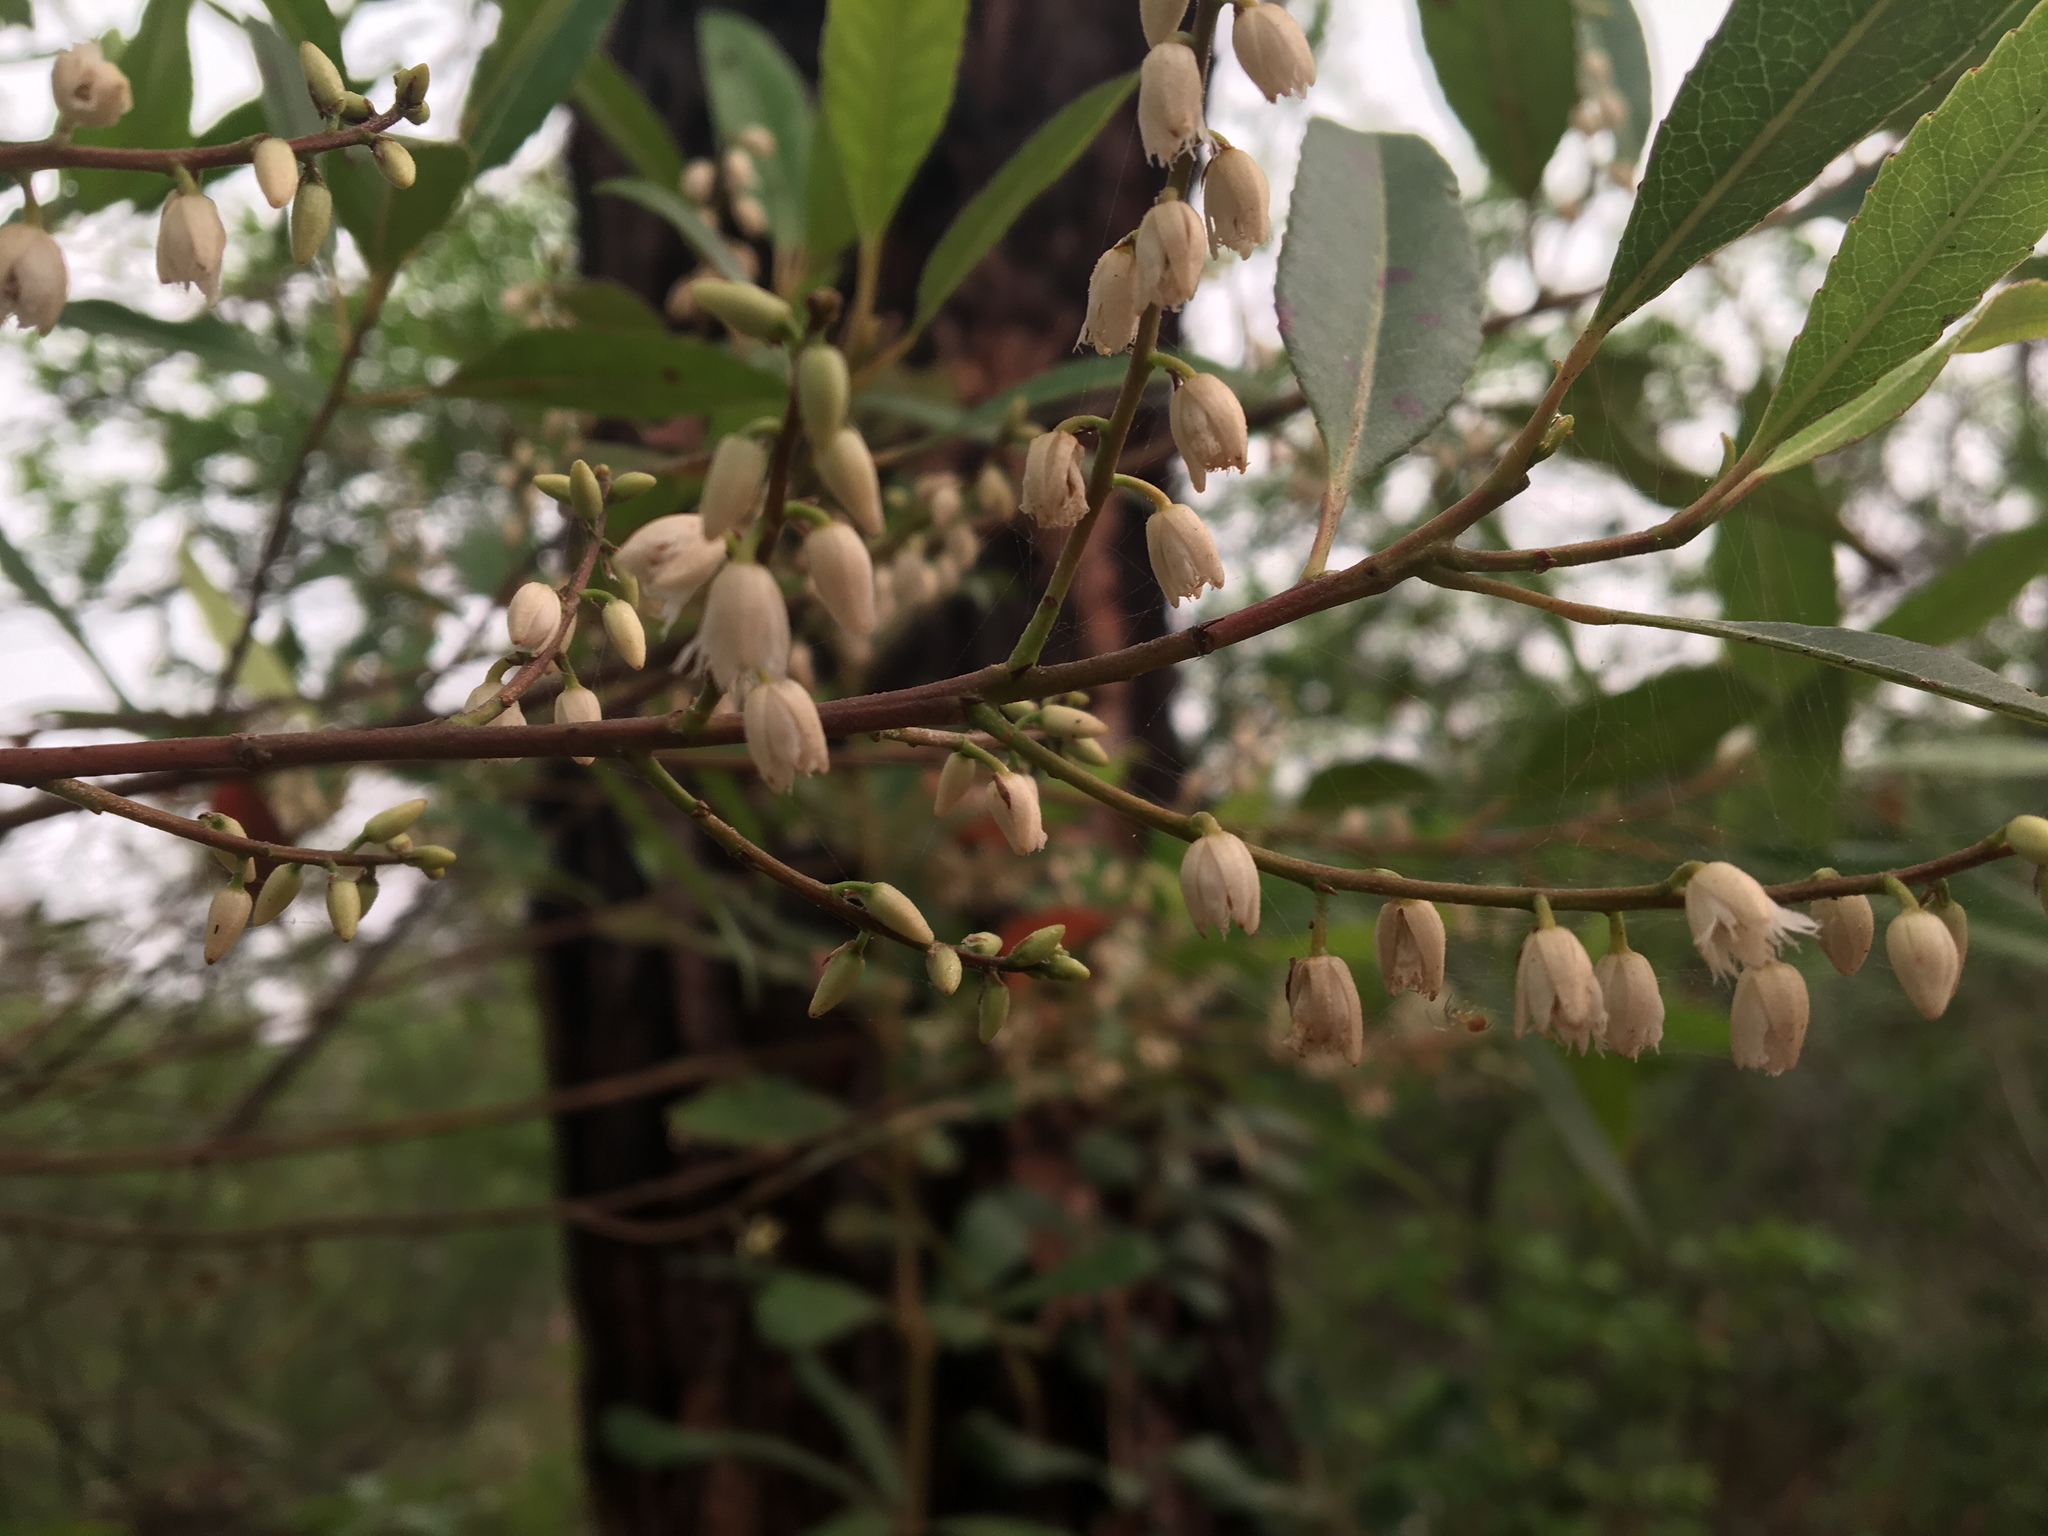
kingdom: Plantae
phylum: Tracheophyta
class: Magnoliopsida
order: Oxalidales
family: Elaeocarpaceae
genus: Elaeocarpus
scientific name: Elaeocarpus reticulatus
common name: Ash quandong
